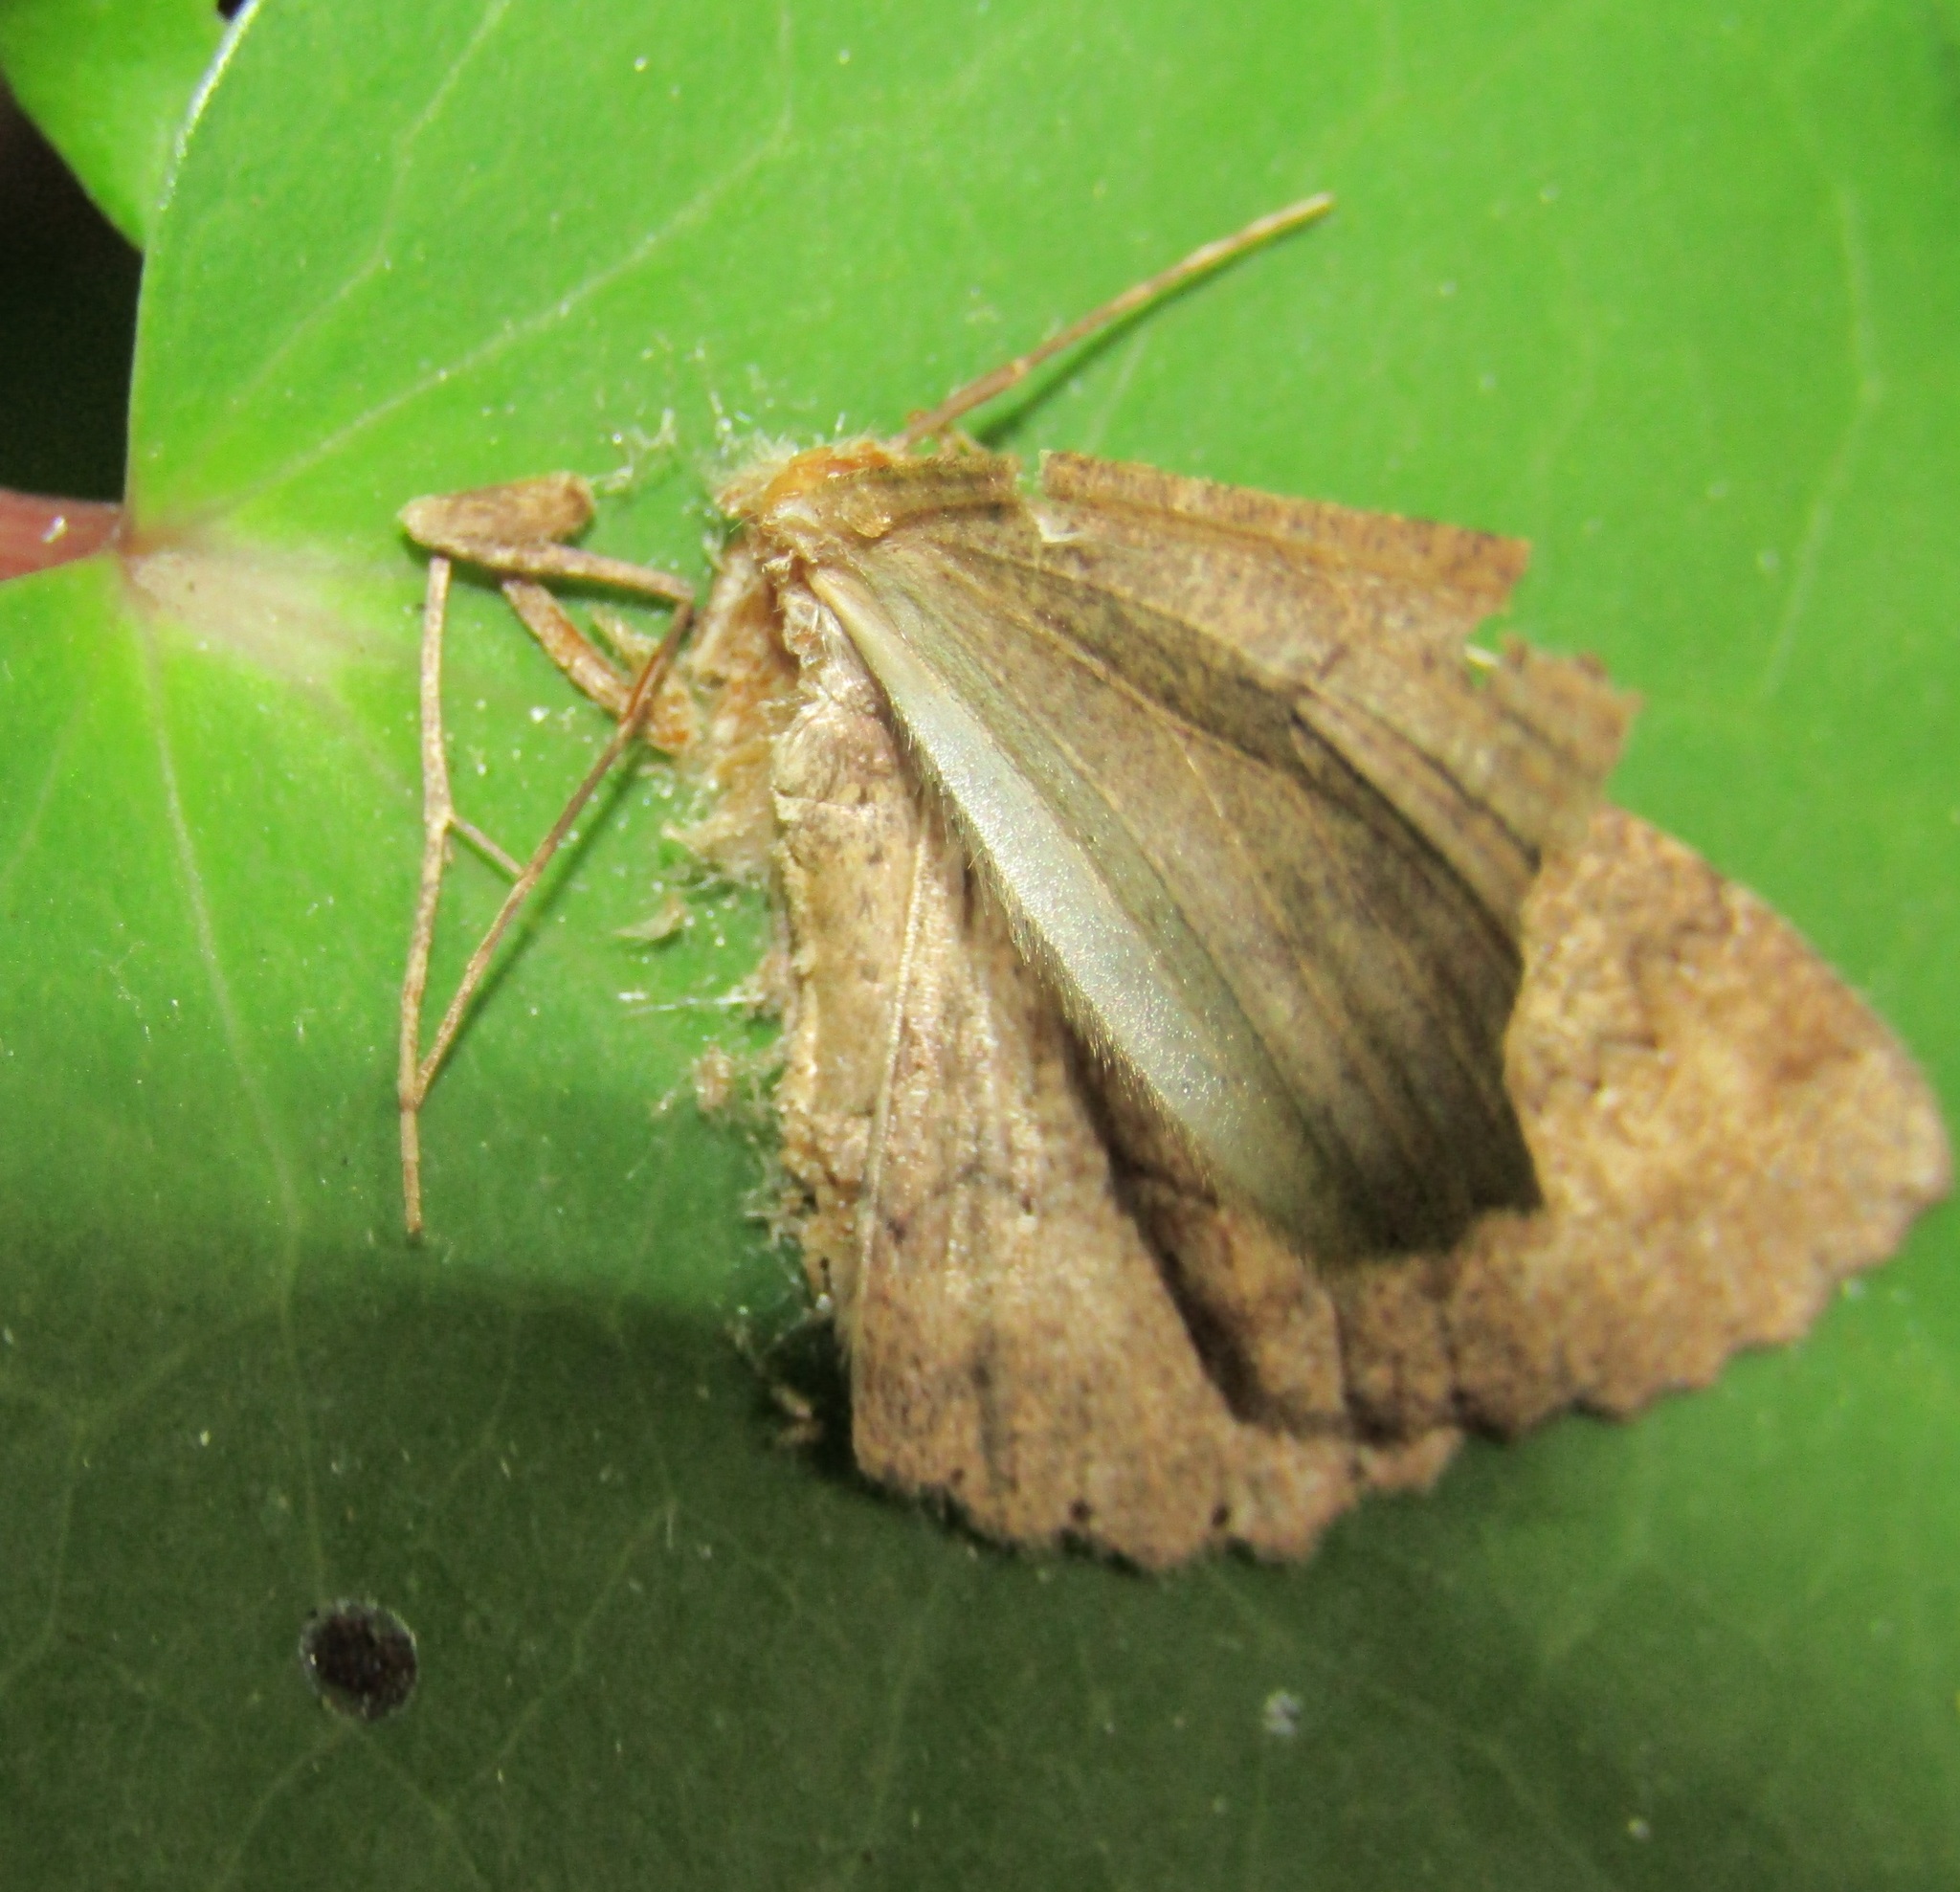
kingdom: Animalia
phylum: Arthropoda
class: Insecta
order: Lepidoptera
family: Geometridae
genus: Cleora
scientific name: Cleora scriptaria
